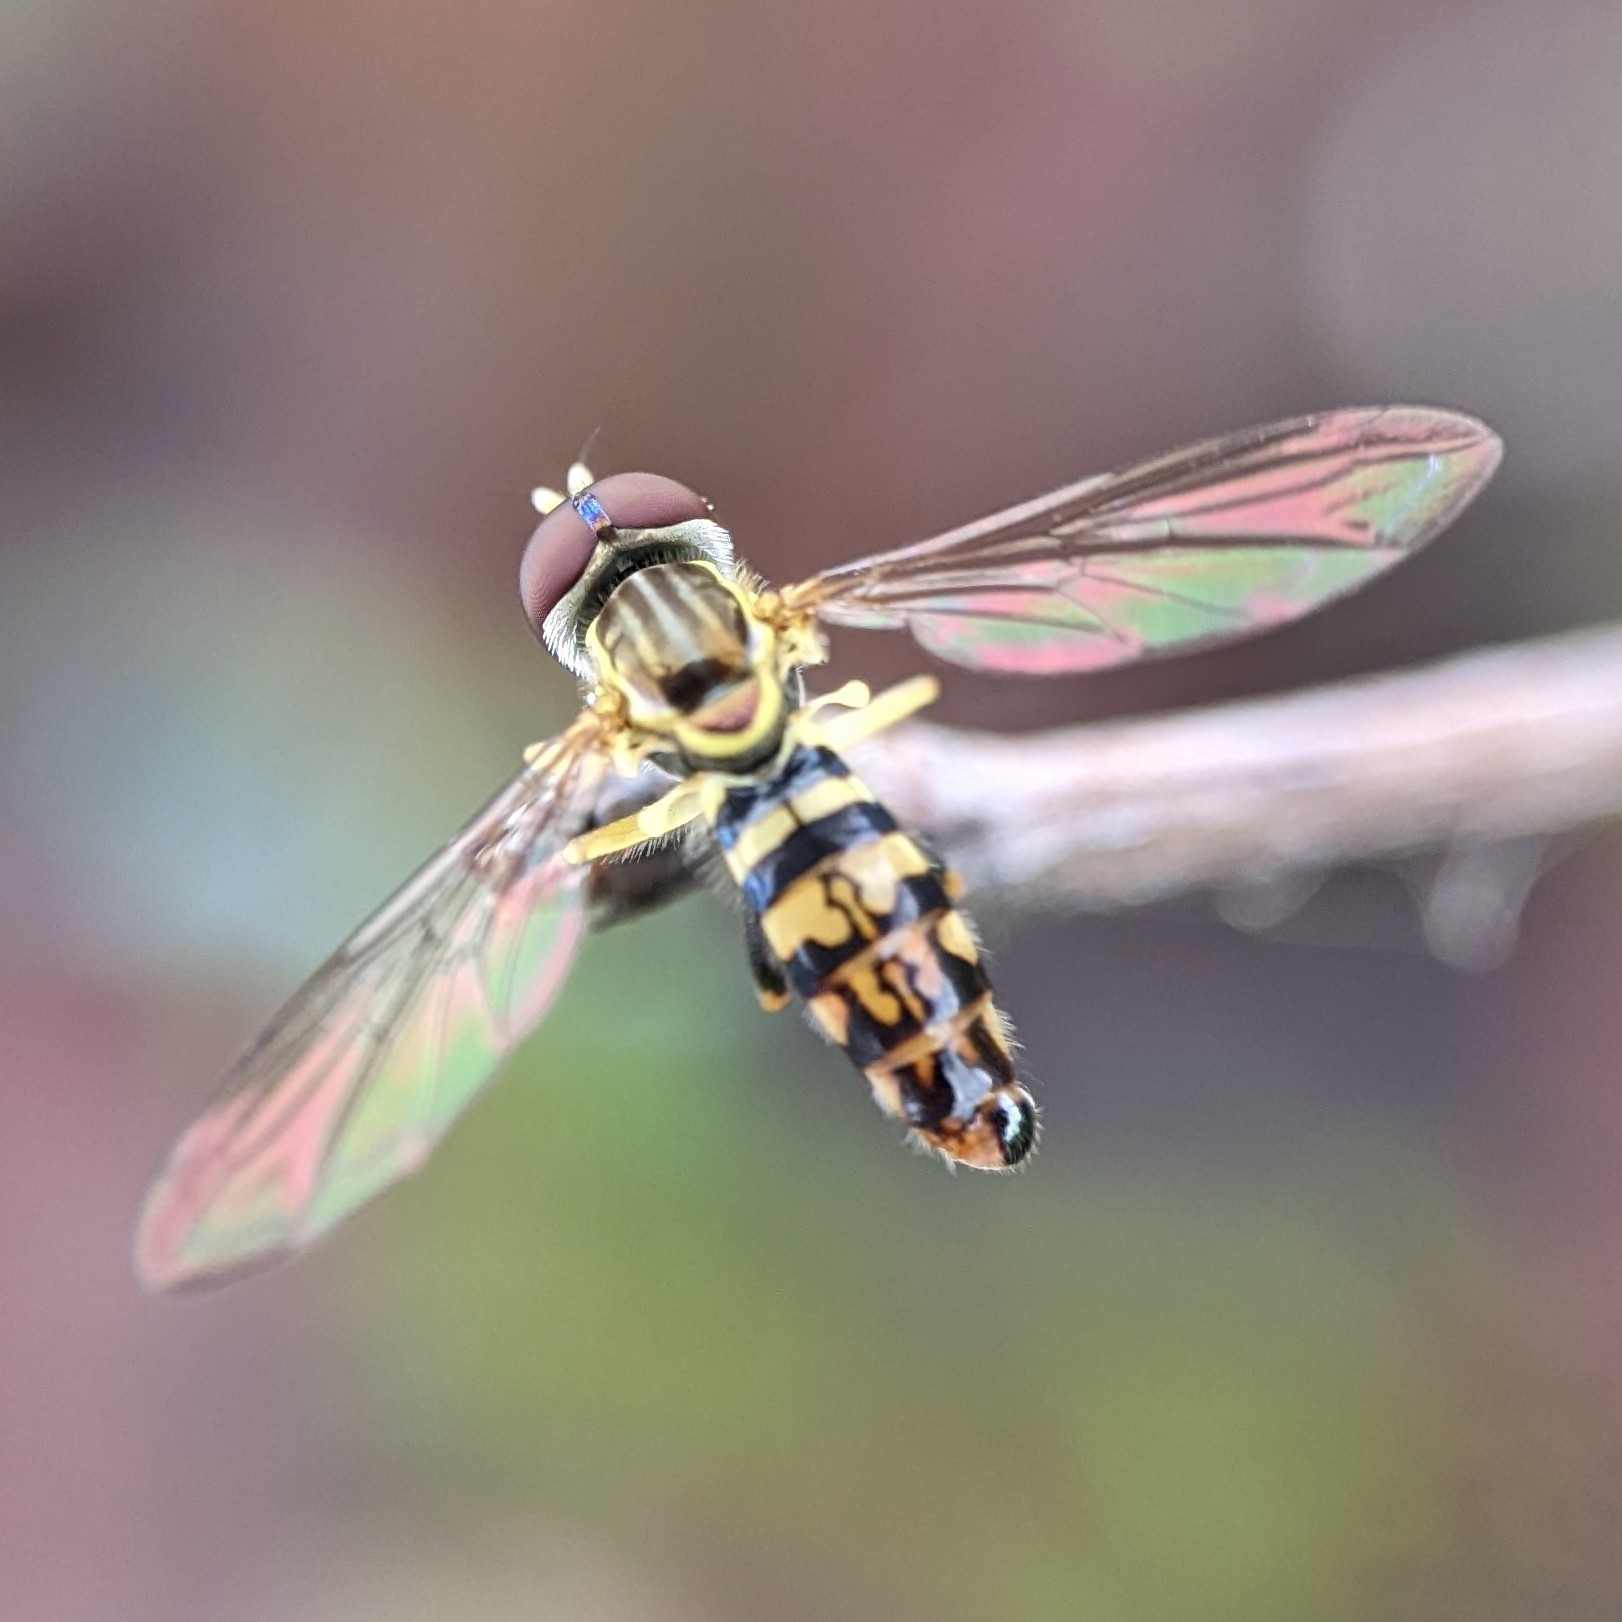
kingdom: Animalia
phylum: Arthropoda
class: Insecta
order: Diptera
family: Syrphidae
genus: Toxomerus
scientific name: Toxomerus geminatus
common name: Eastern calligrapher
